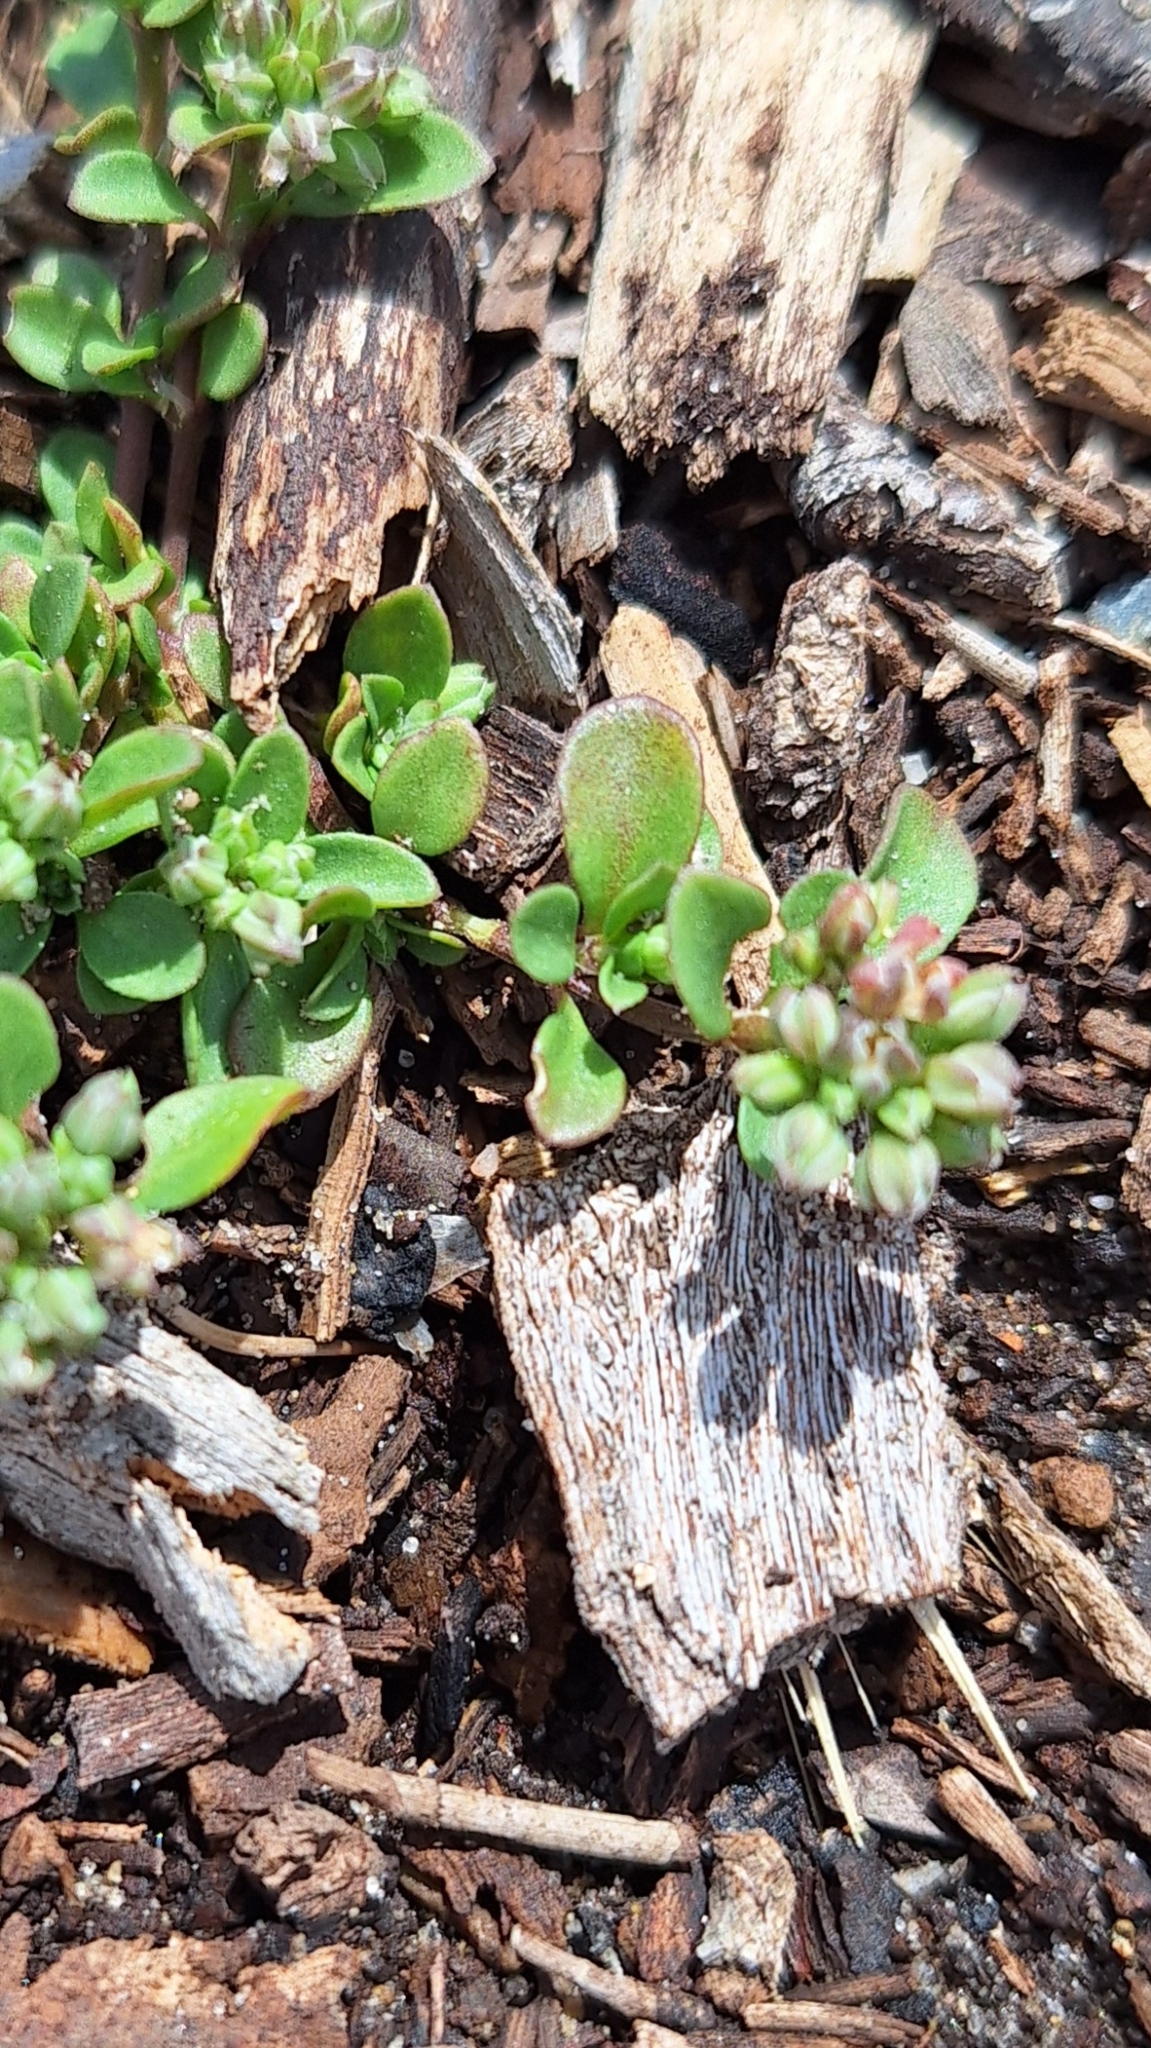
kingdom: Plantae
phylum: Tracheophyta
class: Magnoliopsida
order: Caryophyllales
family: Caryophyllaceae
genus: Polycarpon
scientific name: Polycarpon tetraphyllum
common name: Four-leaved all-seed
